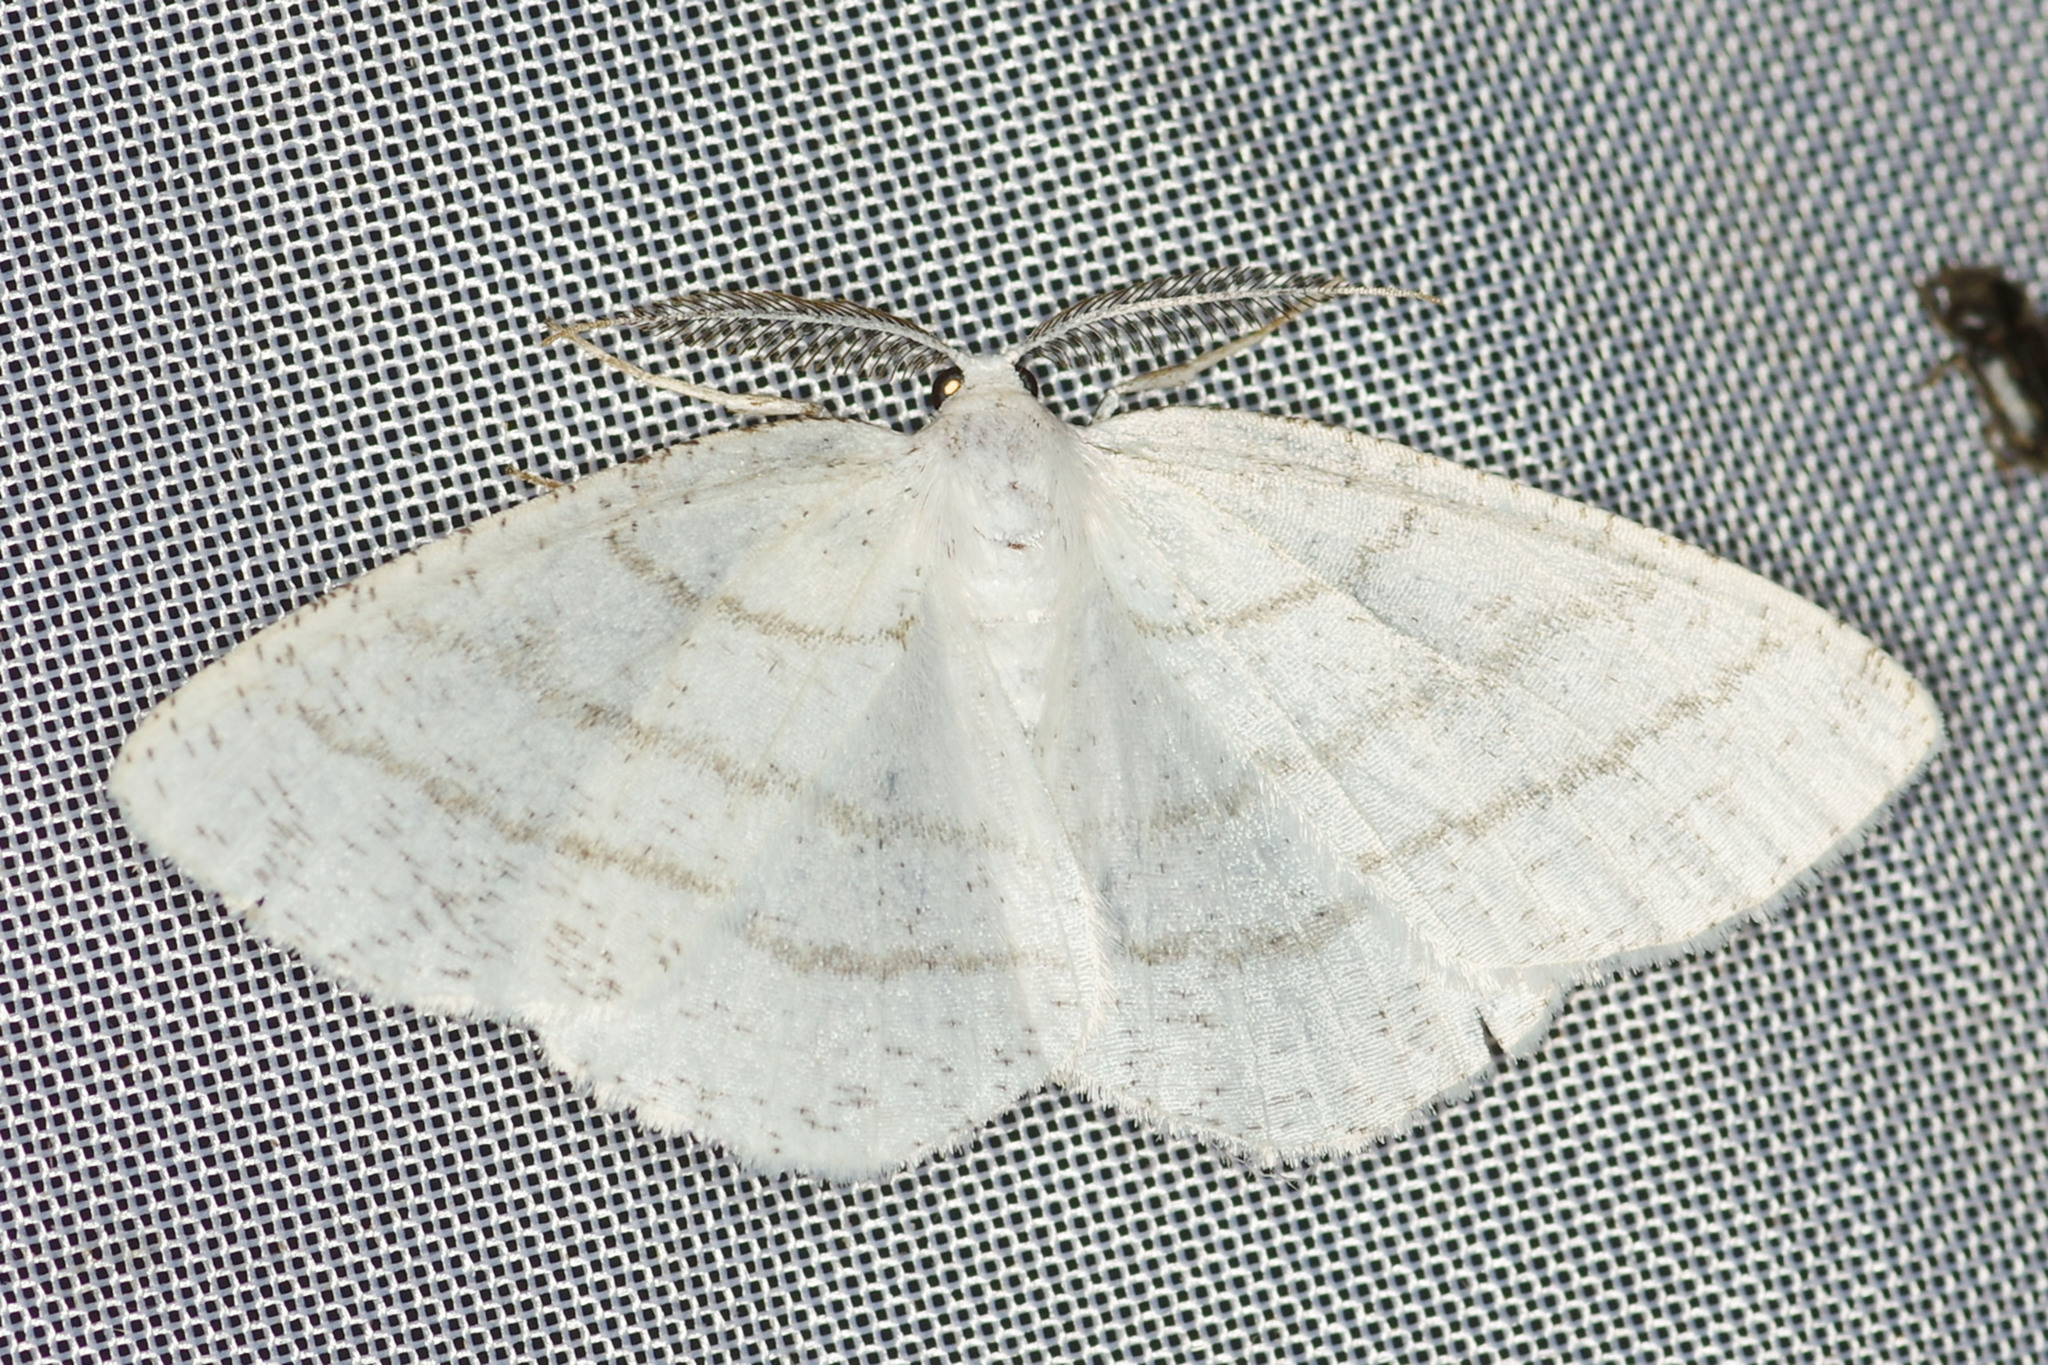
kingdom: Animalia
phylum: Arthropoda
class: Insecta
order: Lepidoptera
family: Geometridae
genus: Cabera
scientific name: Cabera pusaria
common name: Common white wave
